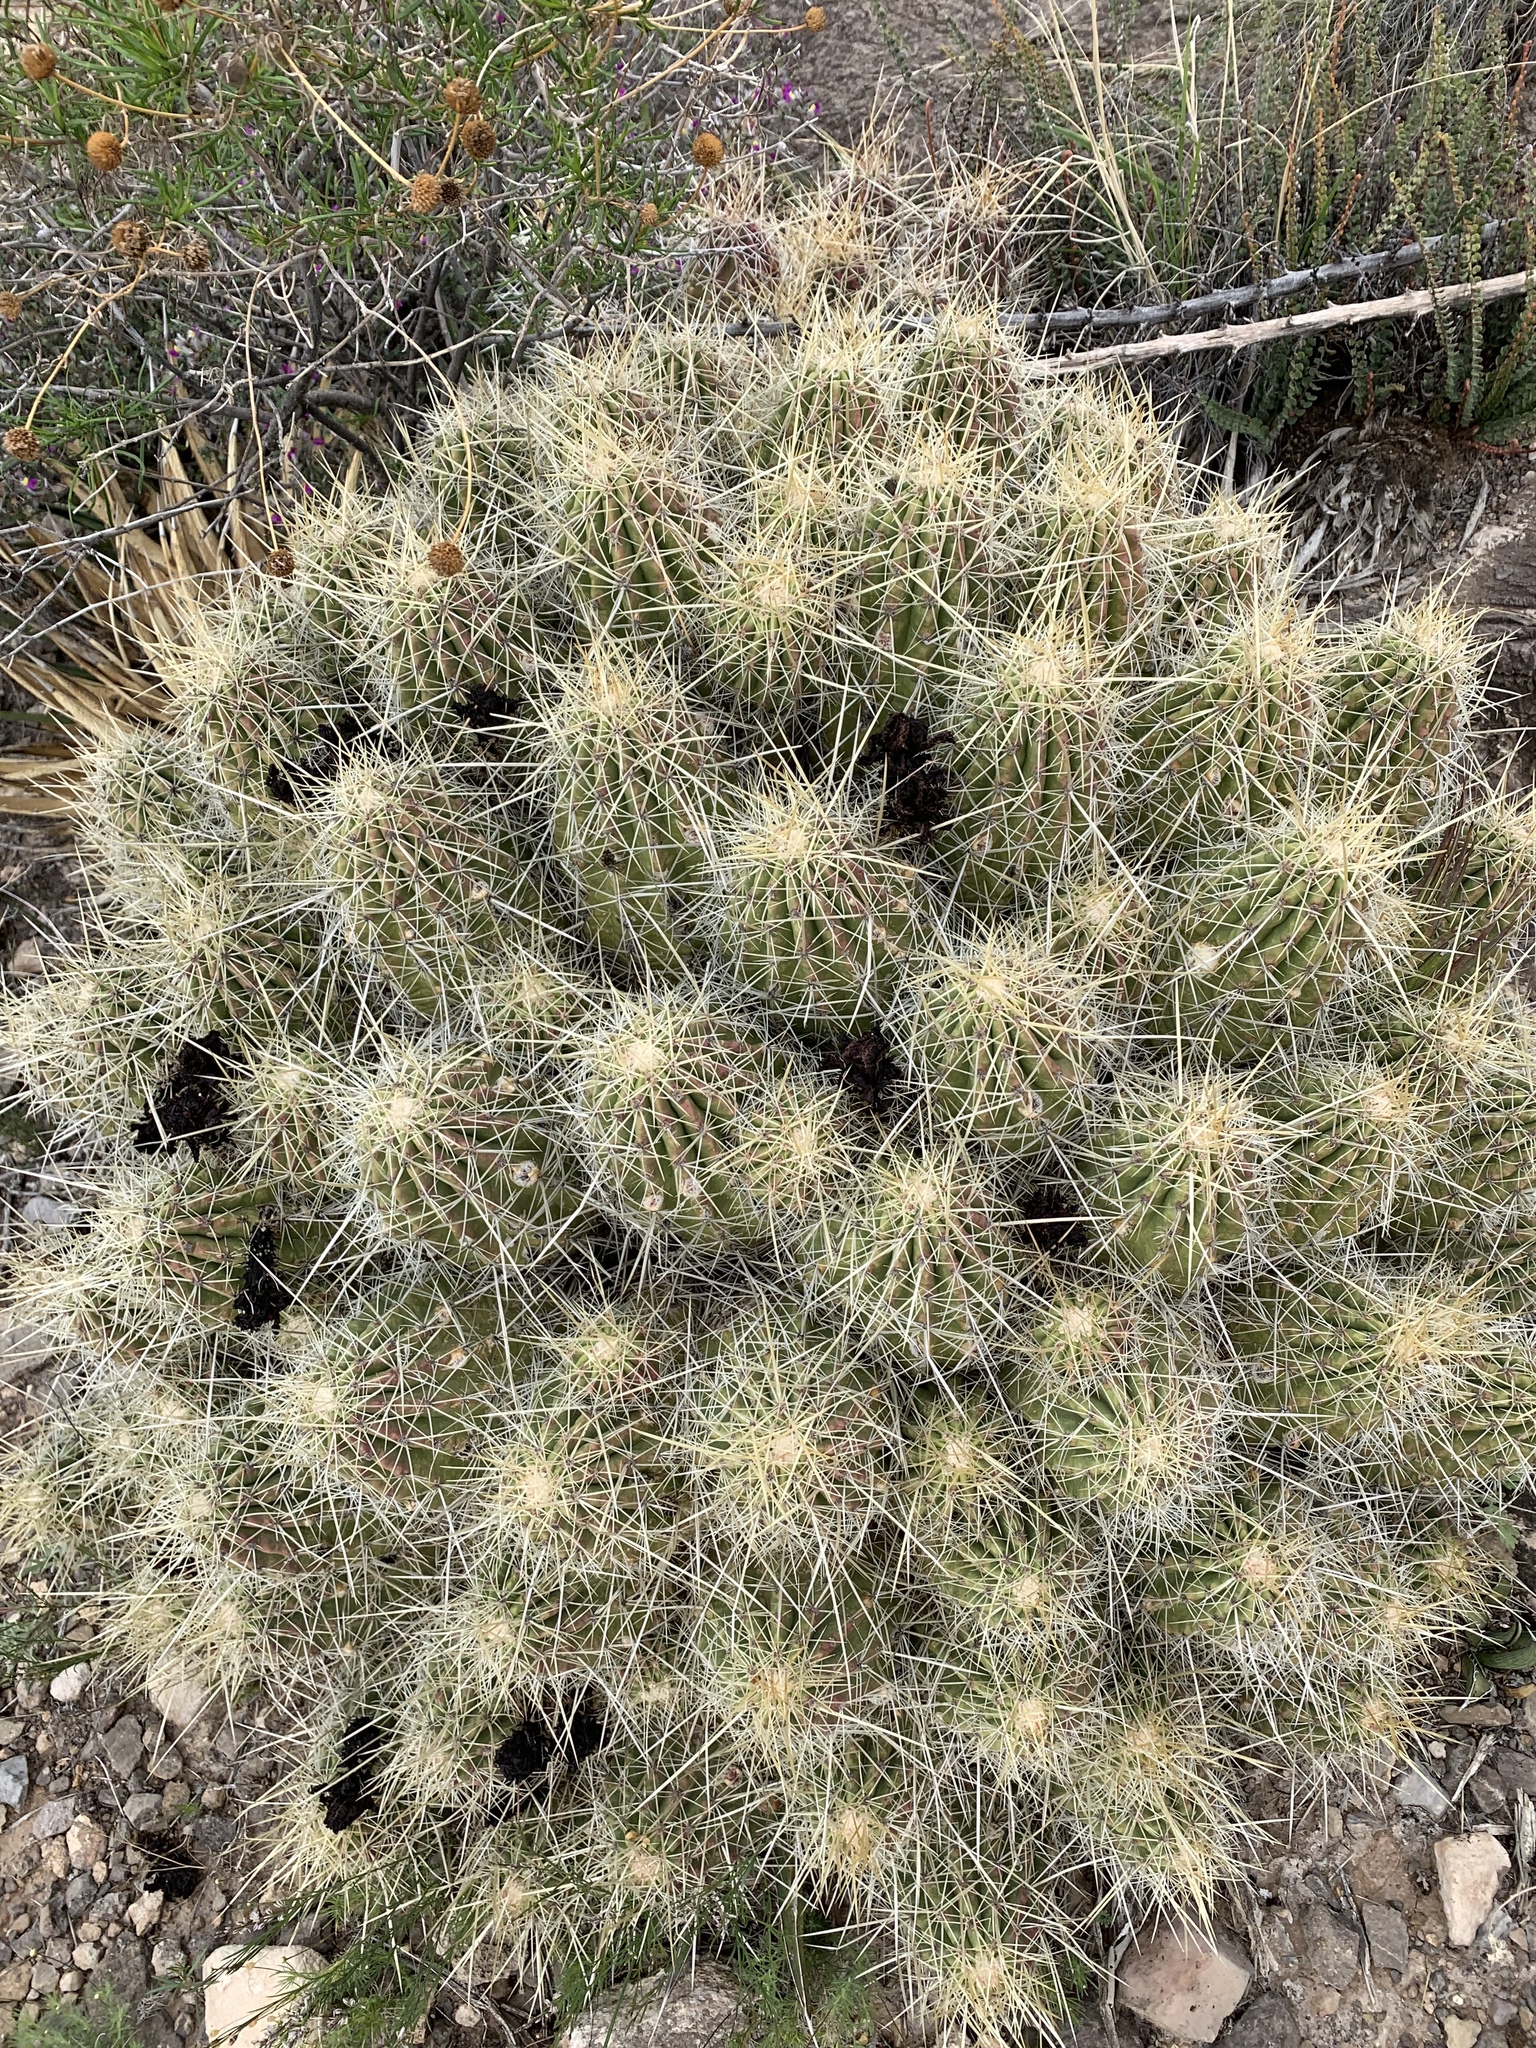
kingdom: Plantae
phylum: Tracheophyta
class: Magnoliopsida
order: Caryophyllales
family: Cactaceae
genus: Echinocereus
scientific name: Echinocereus stramineus
